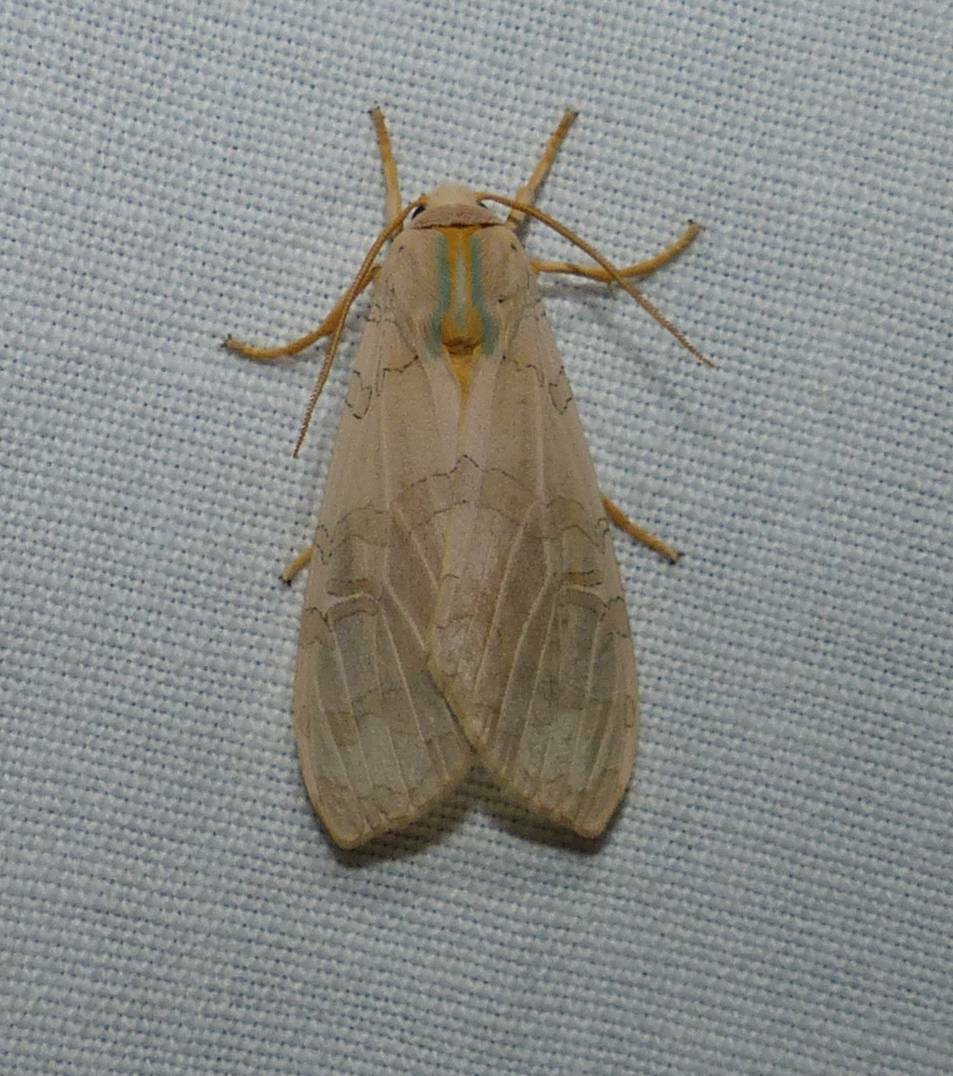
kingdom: Animalia
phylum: Arthropoda
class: Insecta
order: Lepidoptera
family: Erebidae
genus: Halysidota
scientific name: Halysidota tessellaris
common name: Banded tussock moth
